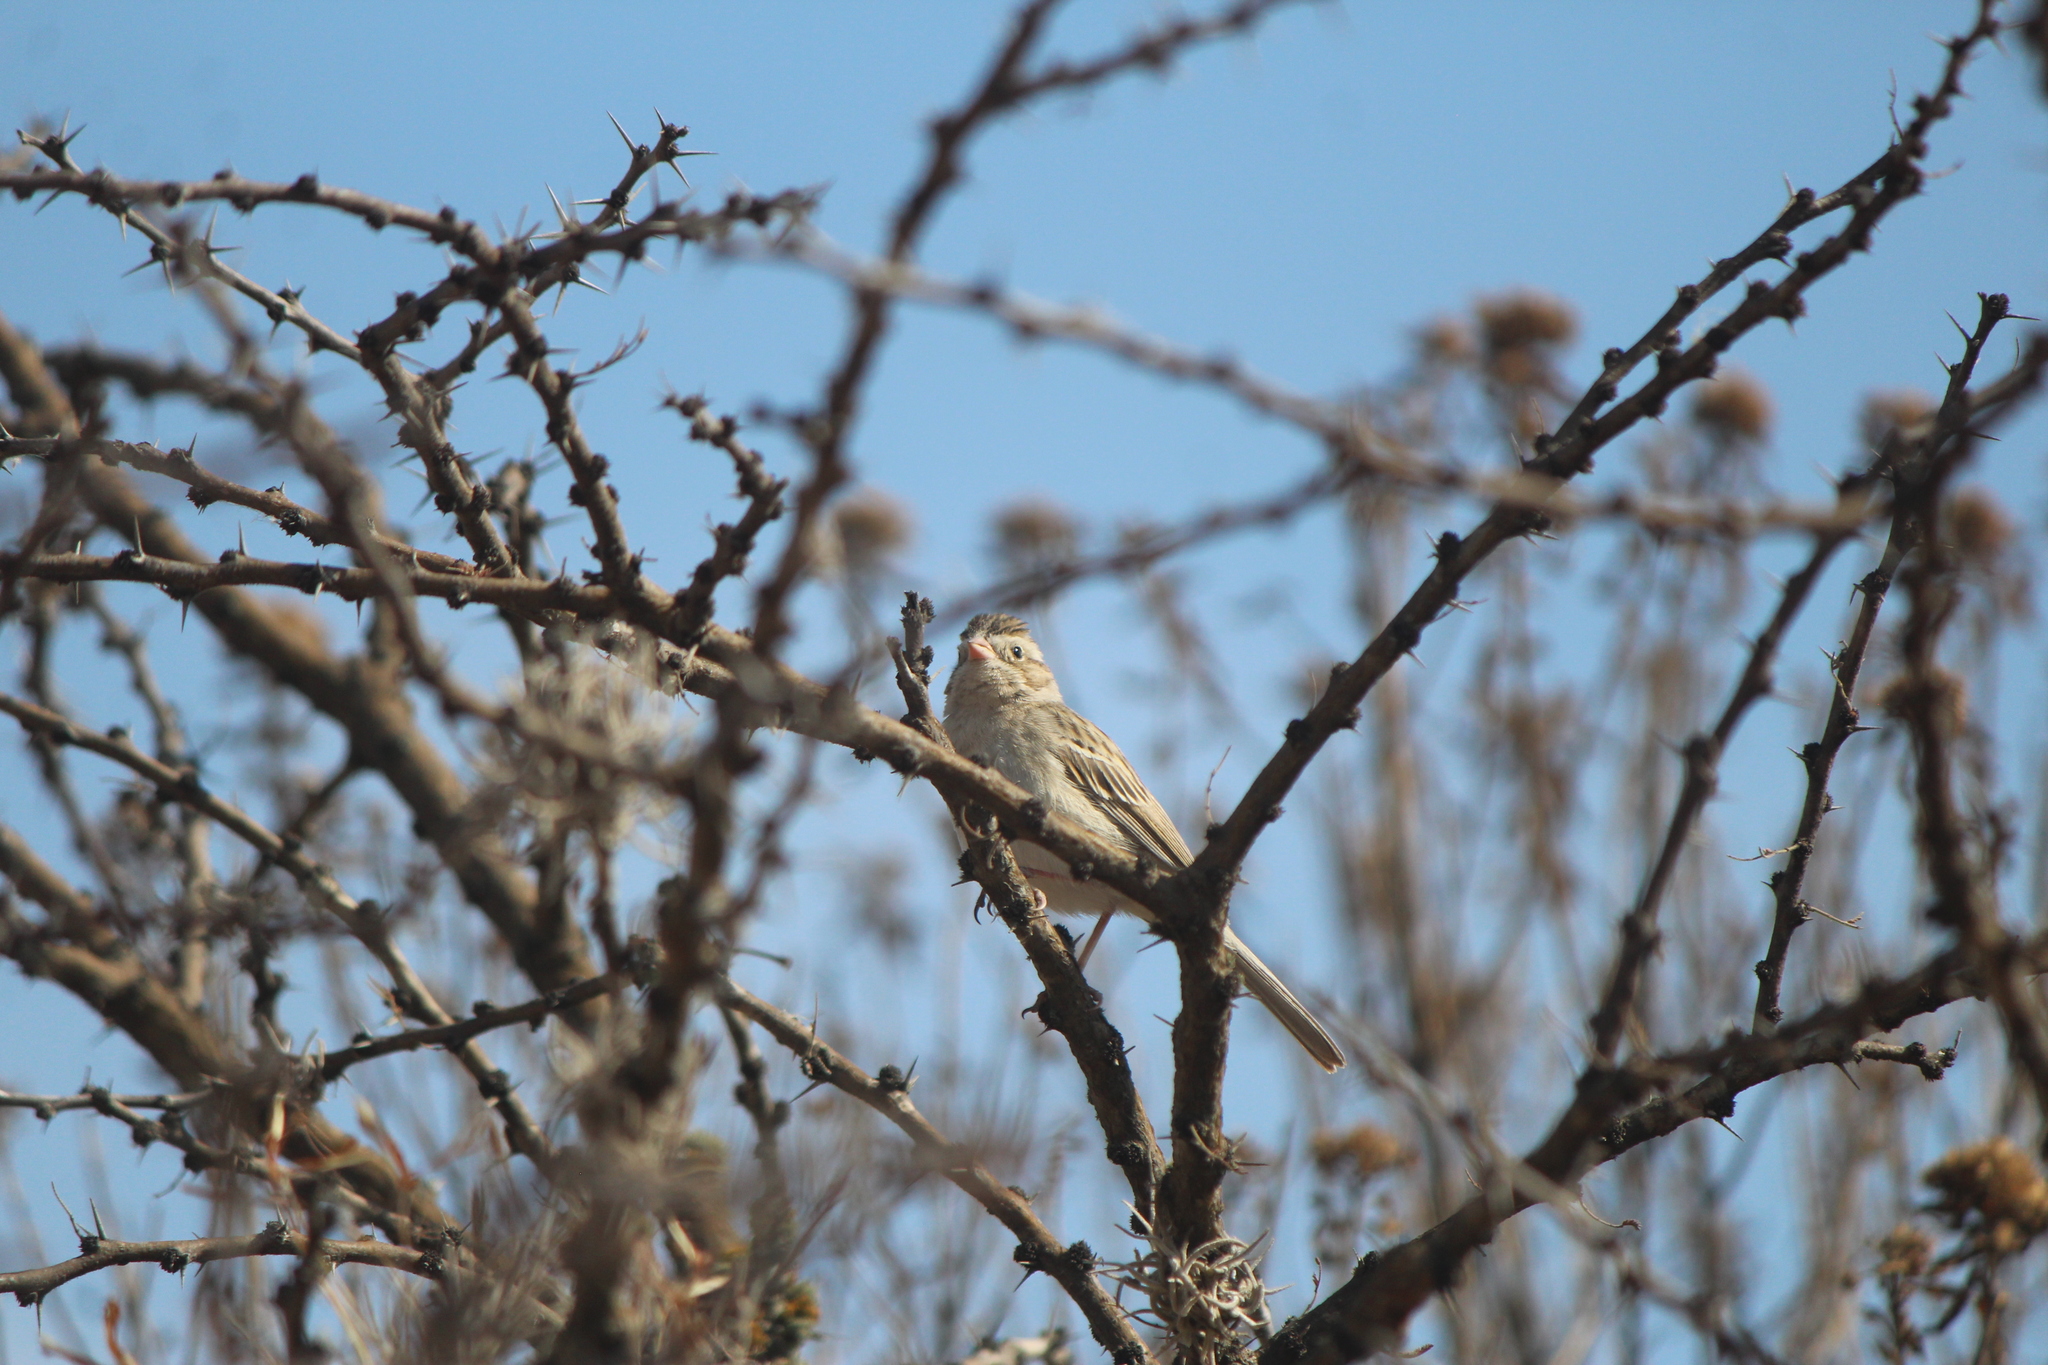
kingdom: Animalia
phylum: Chordata
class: Aves
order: Passeriformes
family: Passerellidae
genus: Spizella
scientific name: Spizella breweri
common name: Brewer's sparrow
